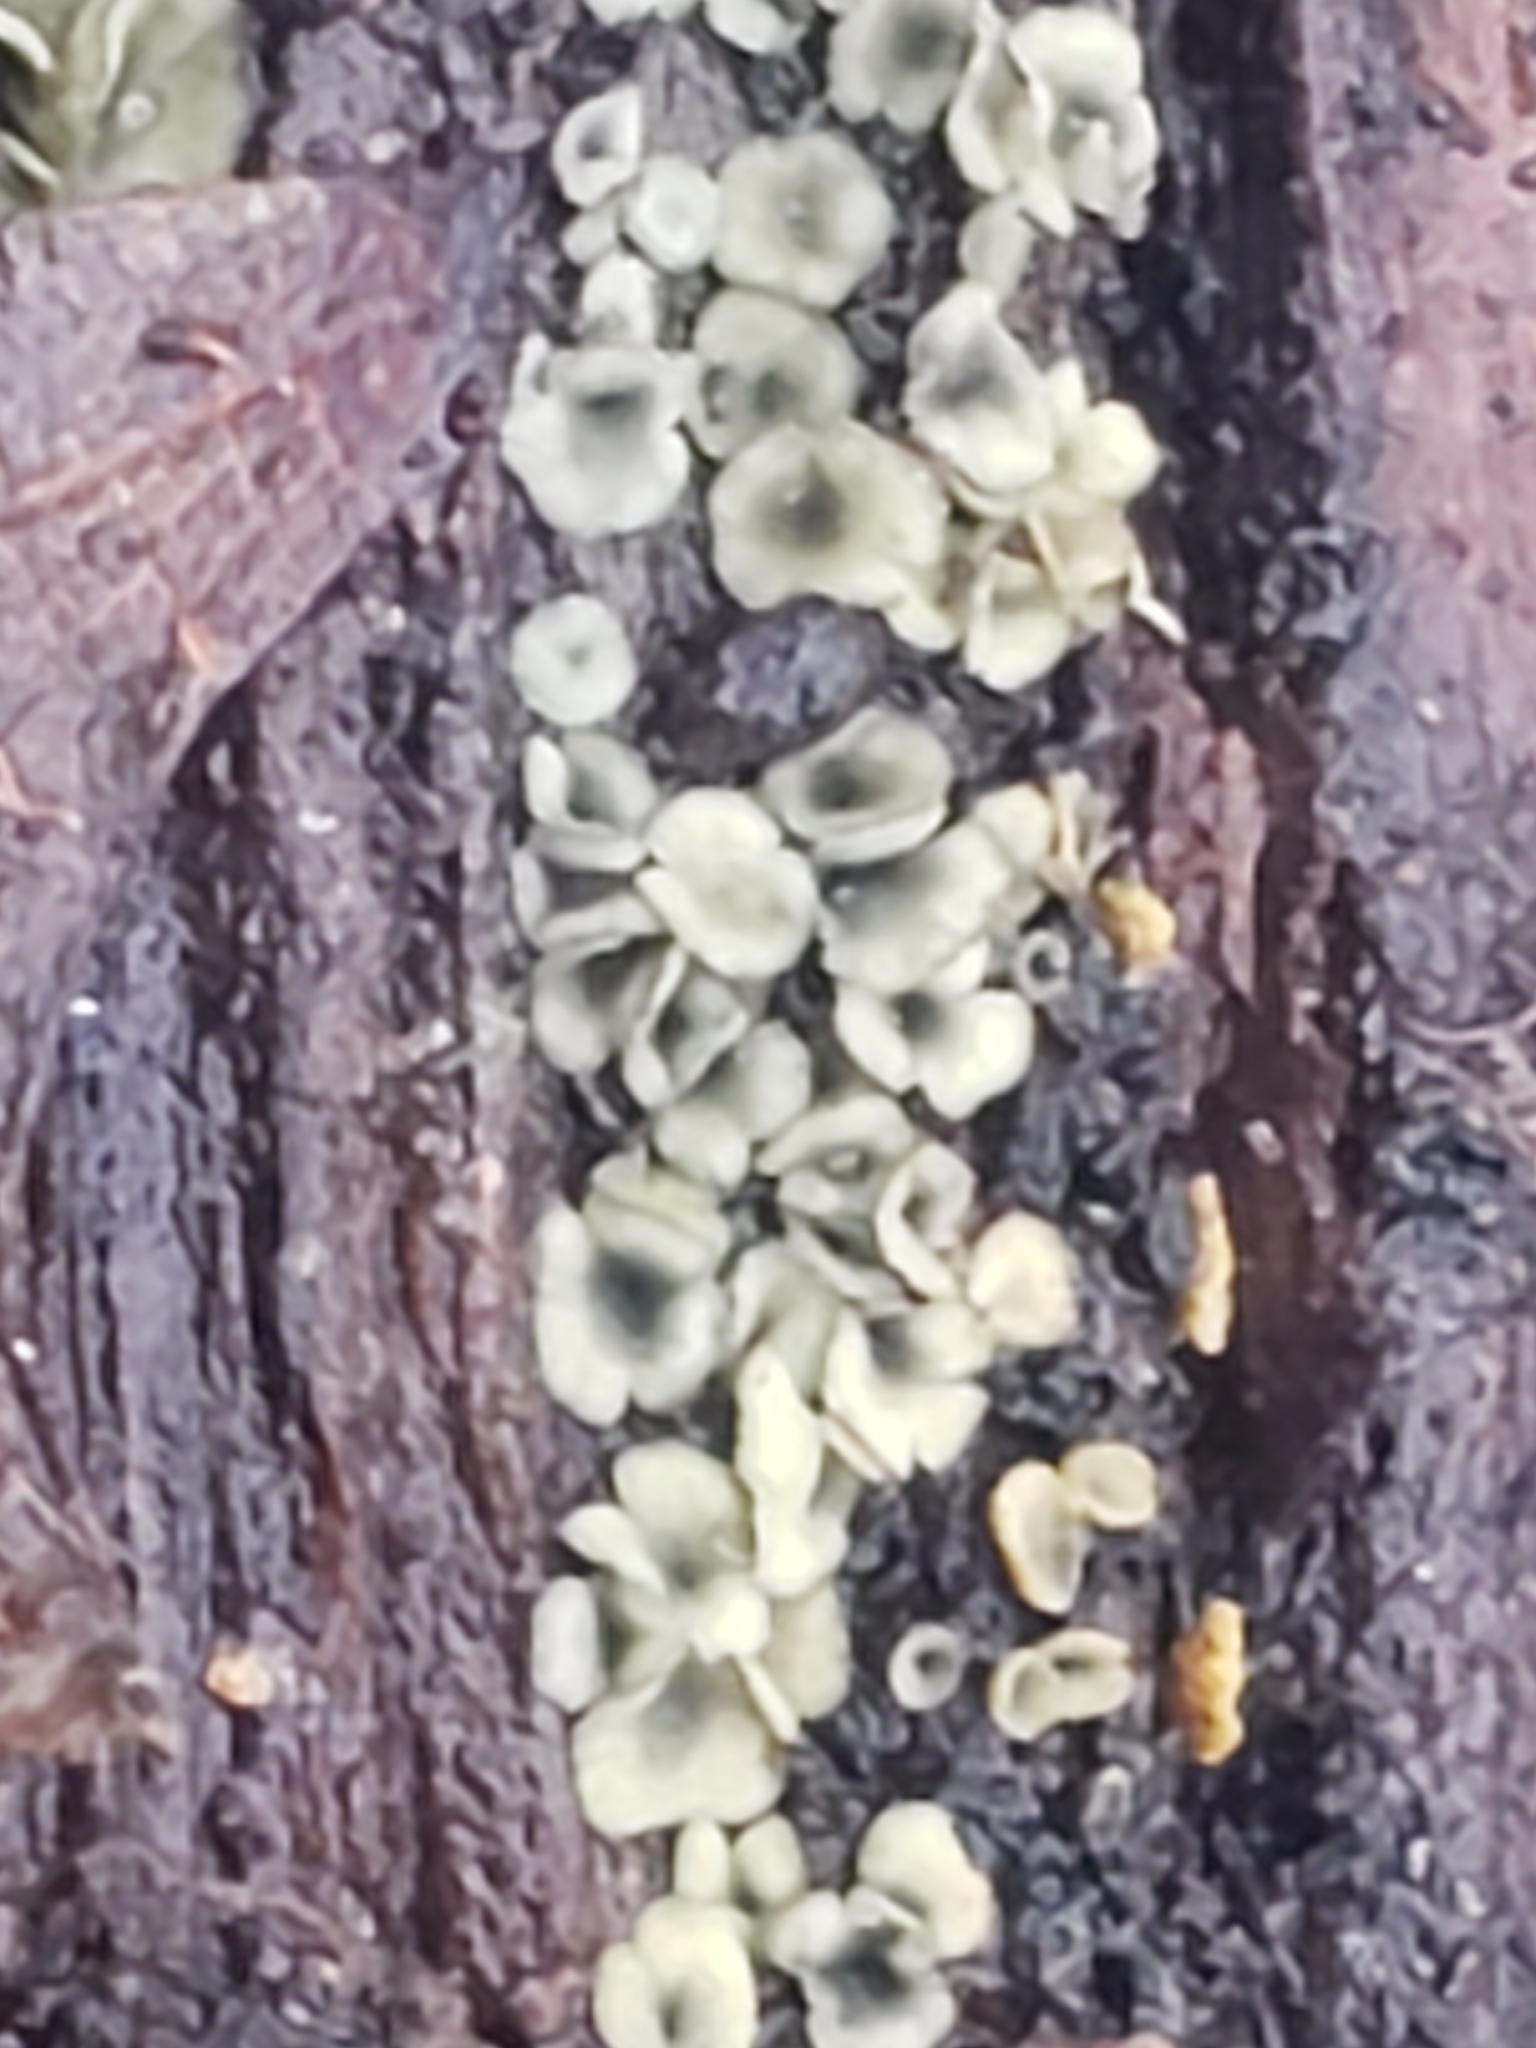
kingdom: Fungi
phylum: Ascomycota
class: Leotiomycetes
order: Helotiales
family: Chlorospleniaceae
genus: Chlorosplenium
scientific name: Chlorosplenium chlora
